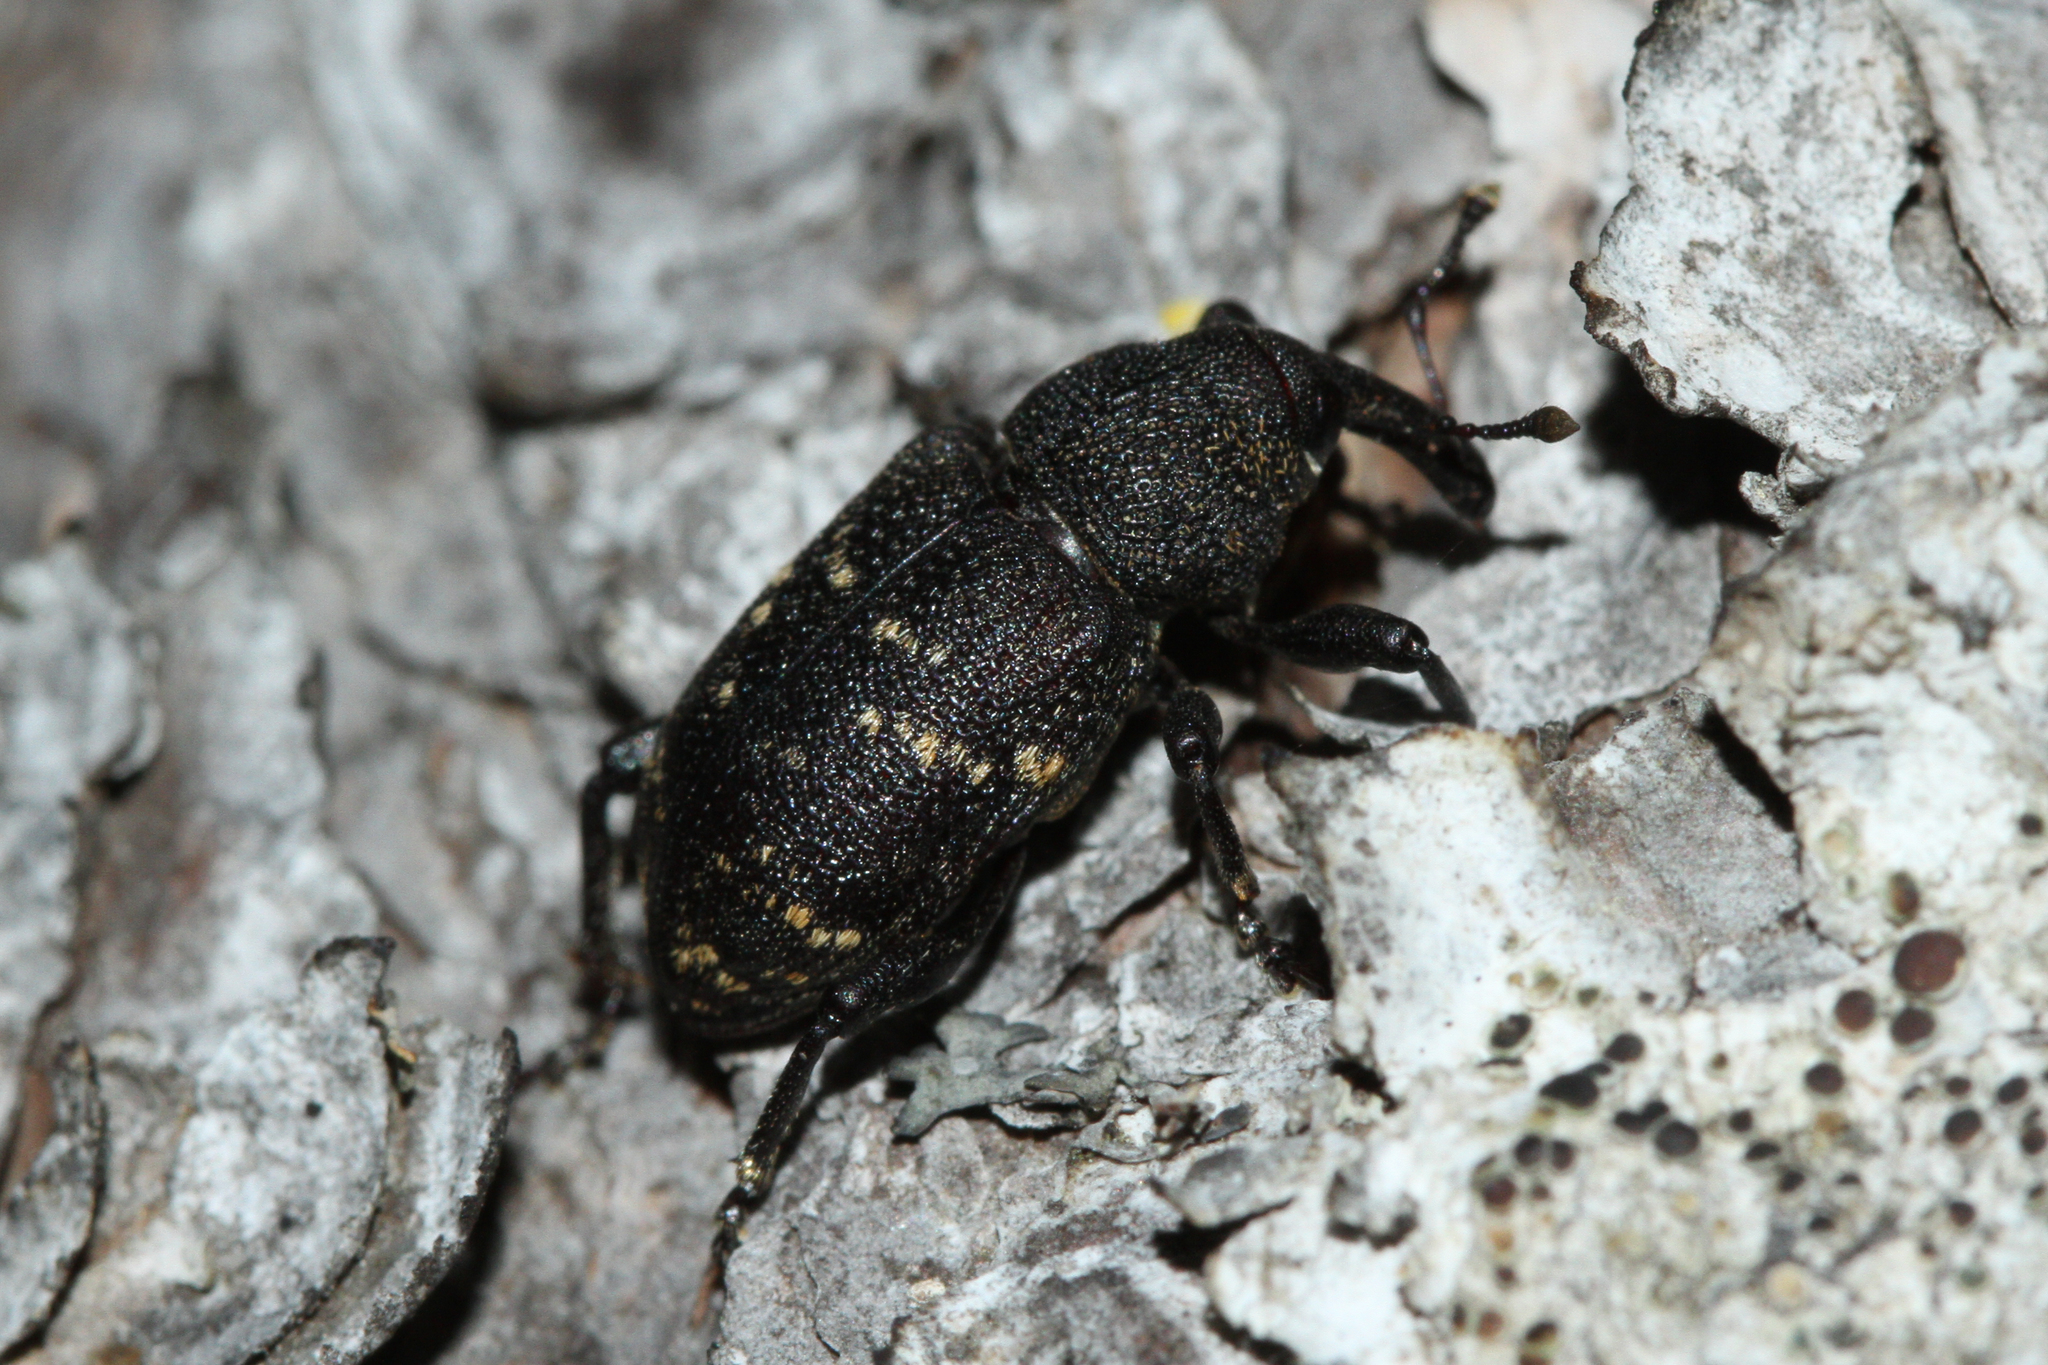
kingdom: Animalia
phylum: Arthropoda
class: Insecta
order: Coleoptera
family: Curculionidae
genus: Hylobius
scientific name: Hylobius abietis
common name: Large pine weevil
